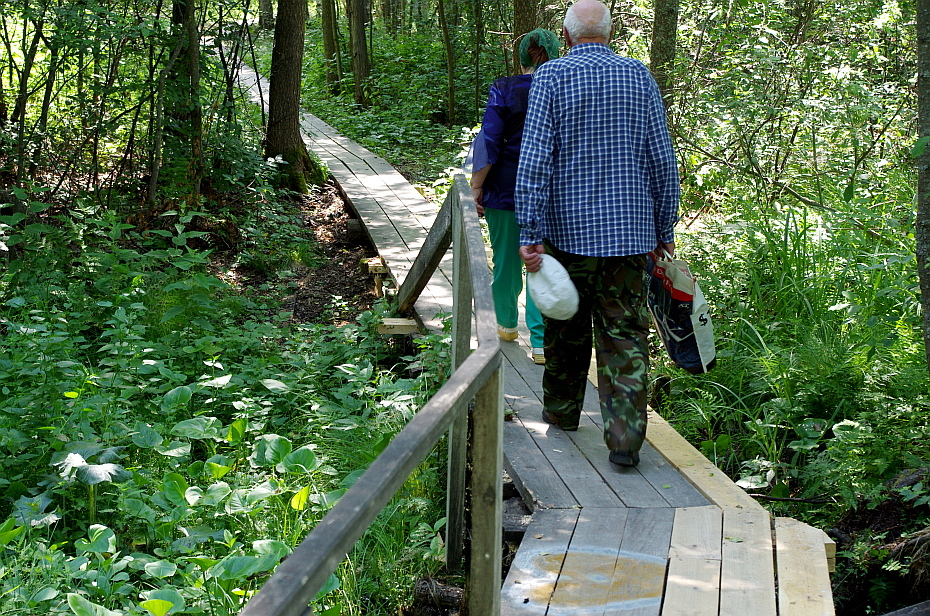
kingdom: Plantae
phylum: Tracheophyta
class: Liliopsida
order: Alismatales
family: Araceae
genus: Calla
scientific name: Calla palustris
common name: Bog arum
